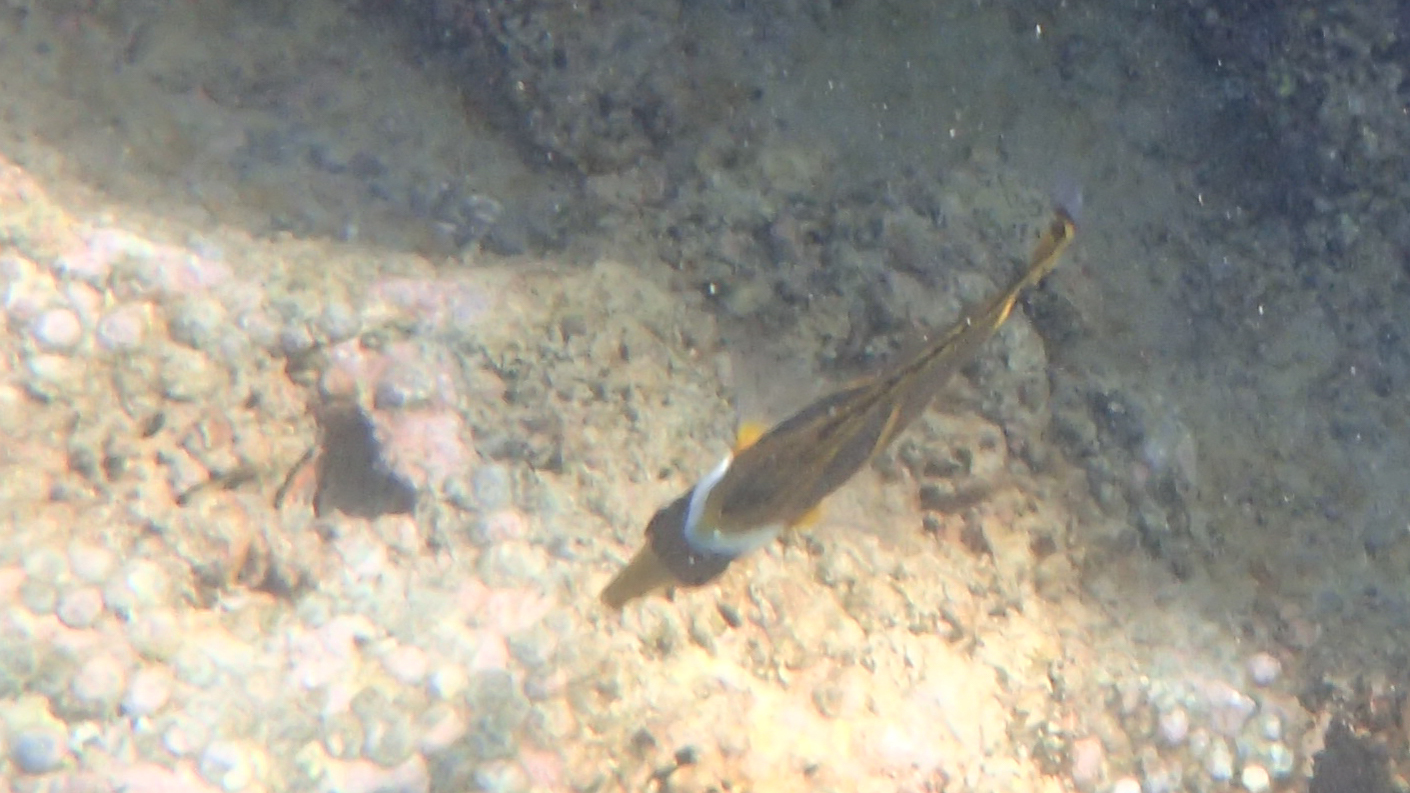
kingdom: Animalia
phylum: Chordata
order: Perciformes
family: Chaetodontidae
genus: Chaetodon
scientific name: Chaetodon lunula
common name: Raccoon butterflyfish
